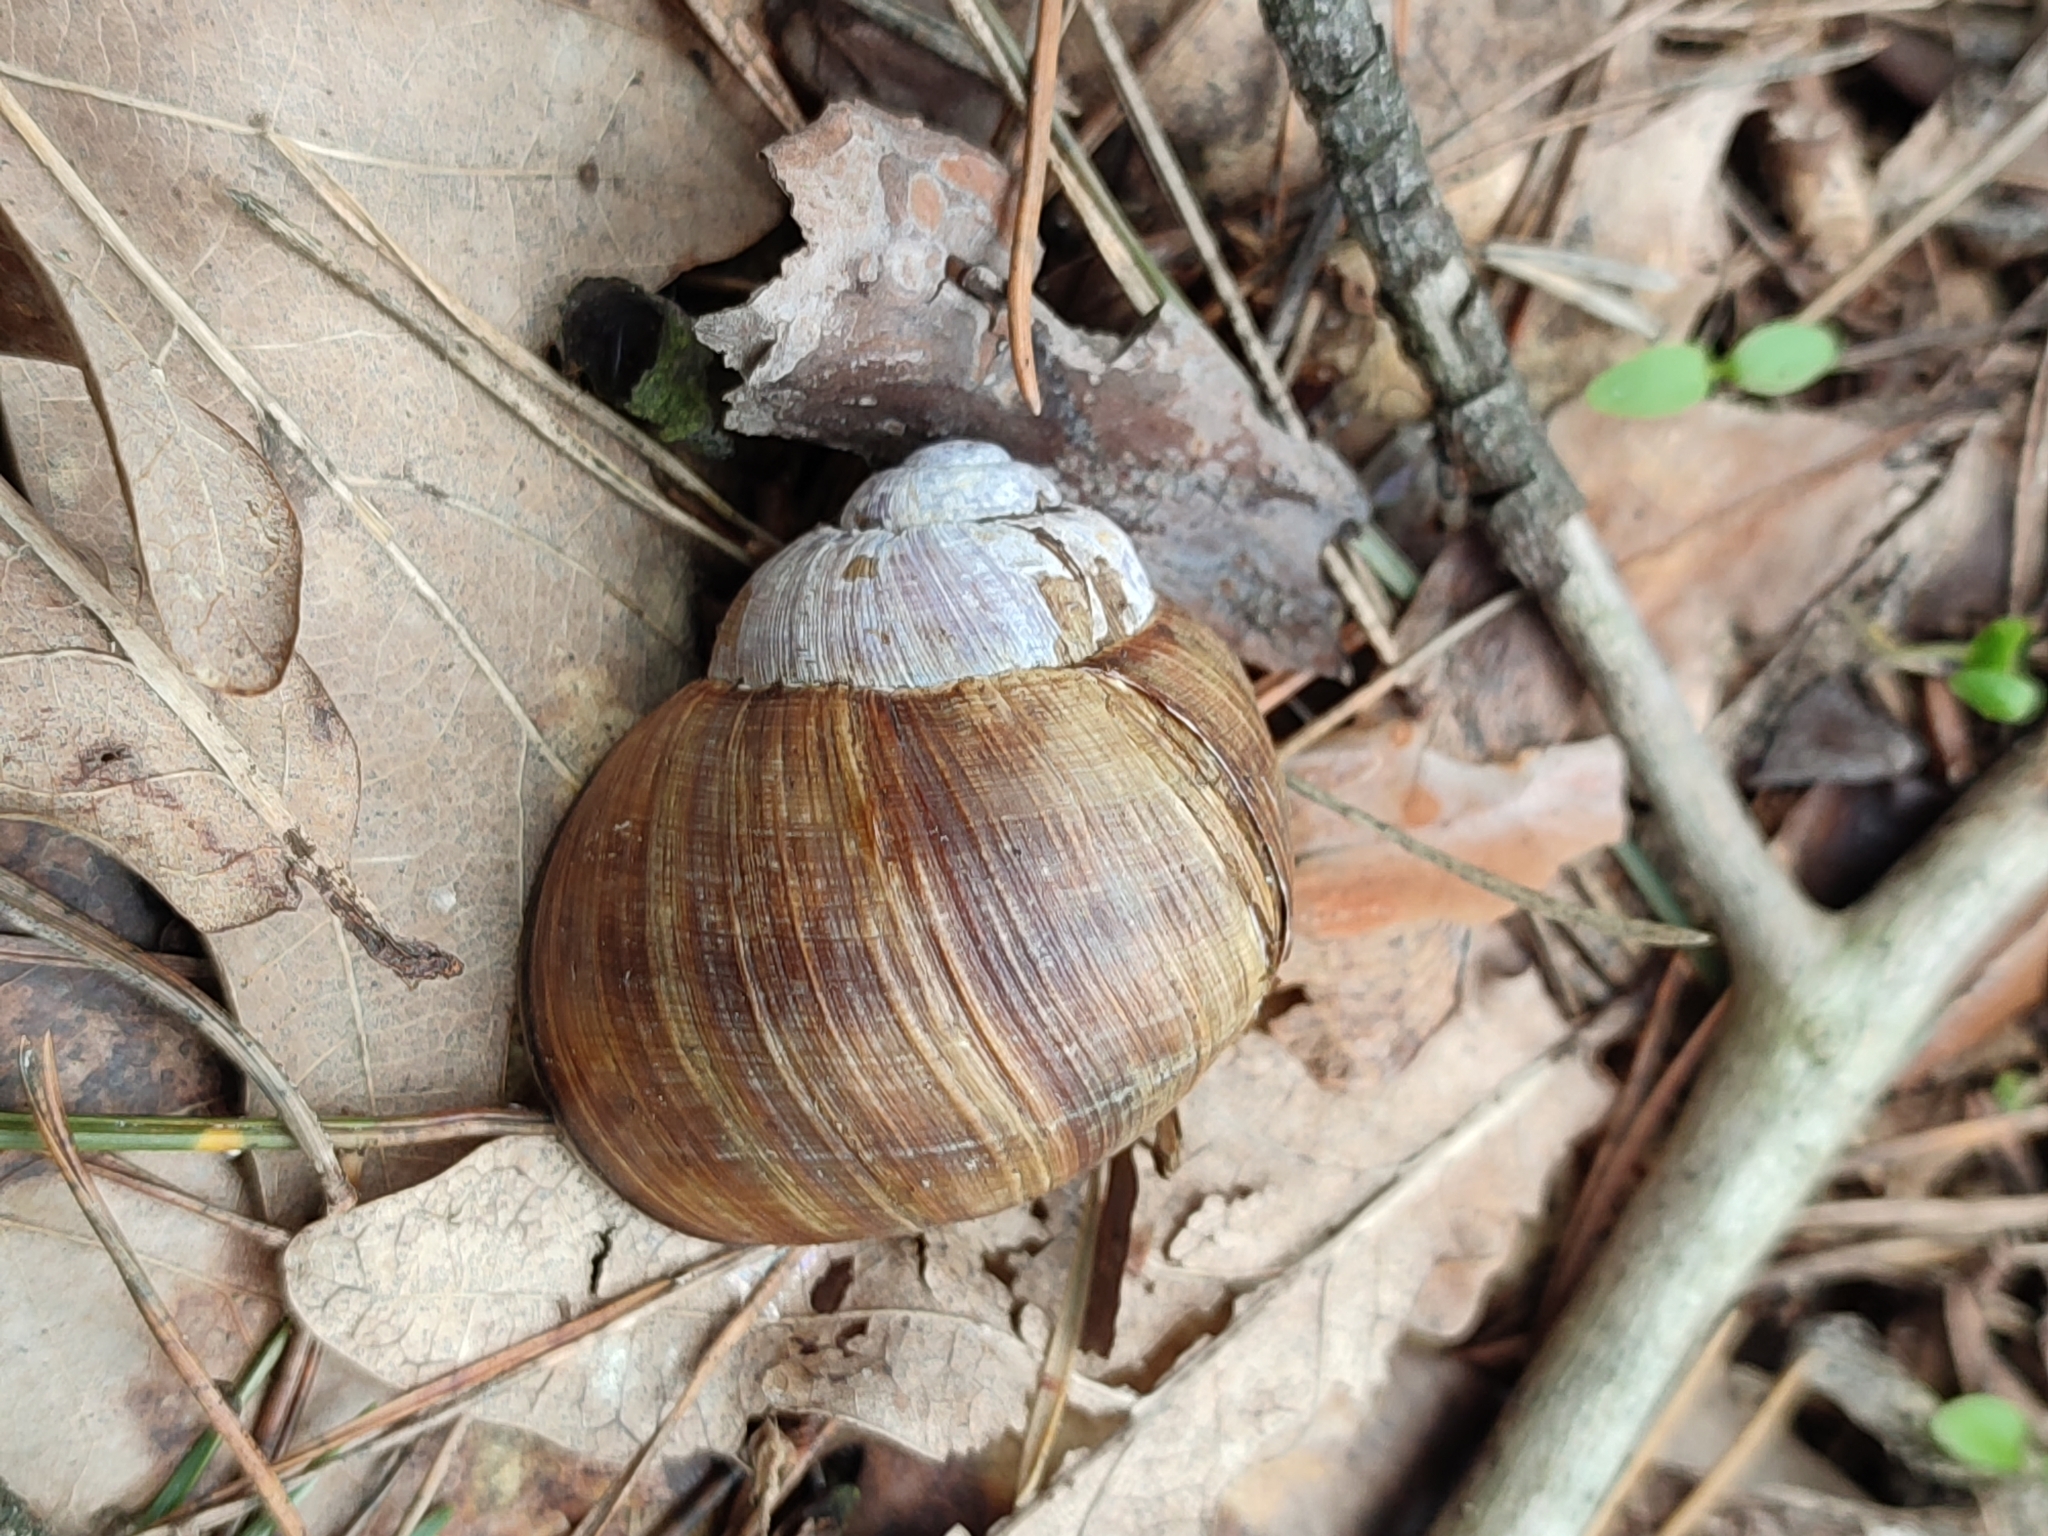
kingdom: Animalia
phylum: Mollusca
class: Gastropoda
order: Stylommatophora
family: Helicidae
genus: Helix
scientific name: Helix pomatia
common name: Roman snail
